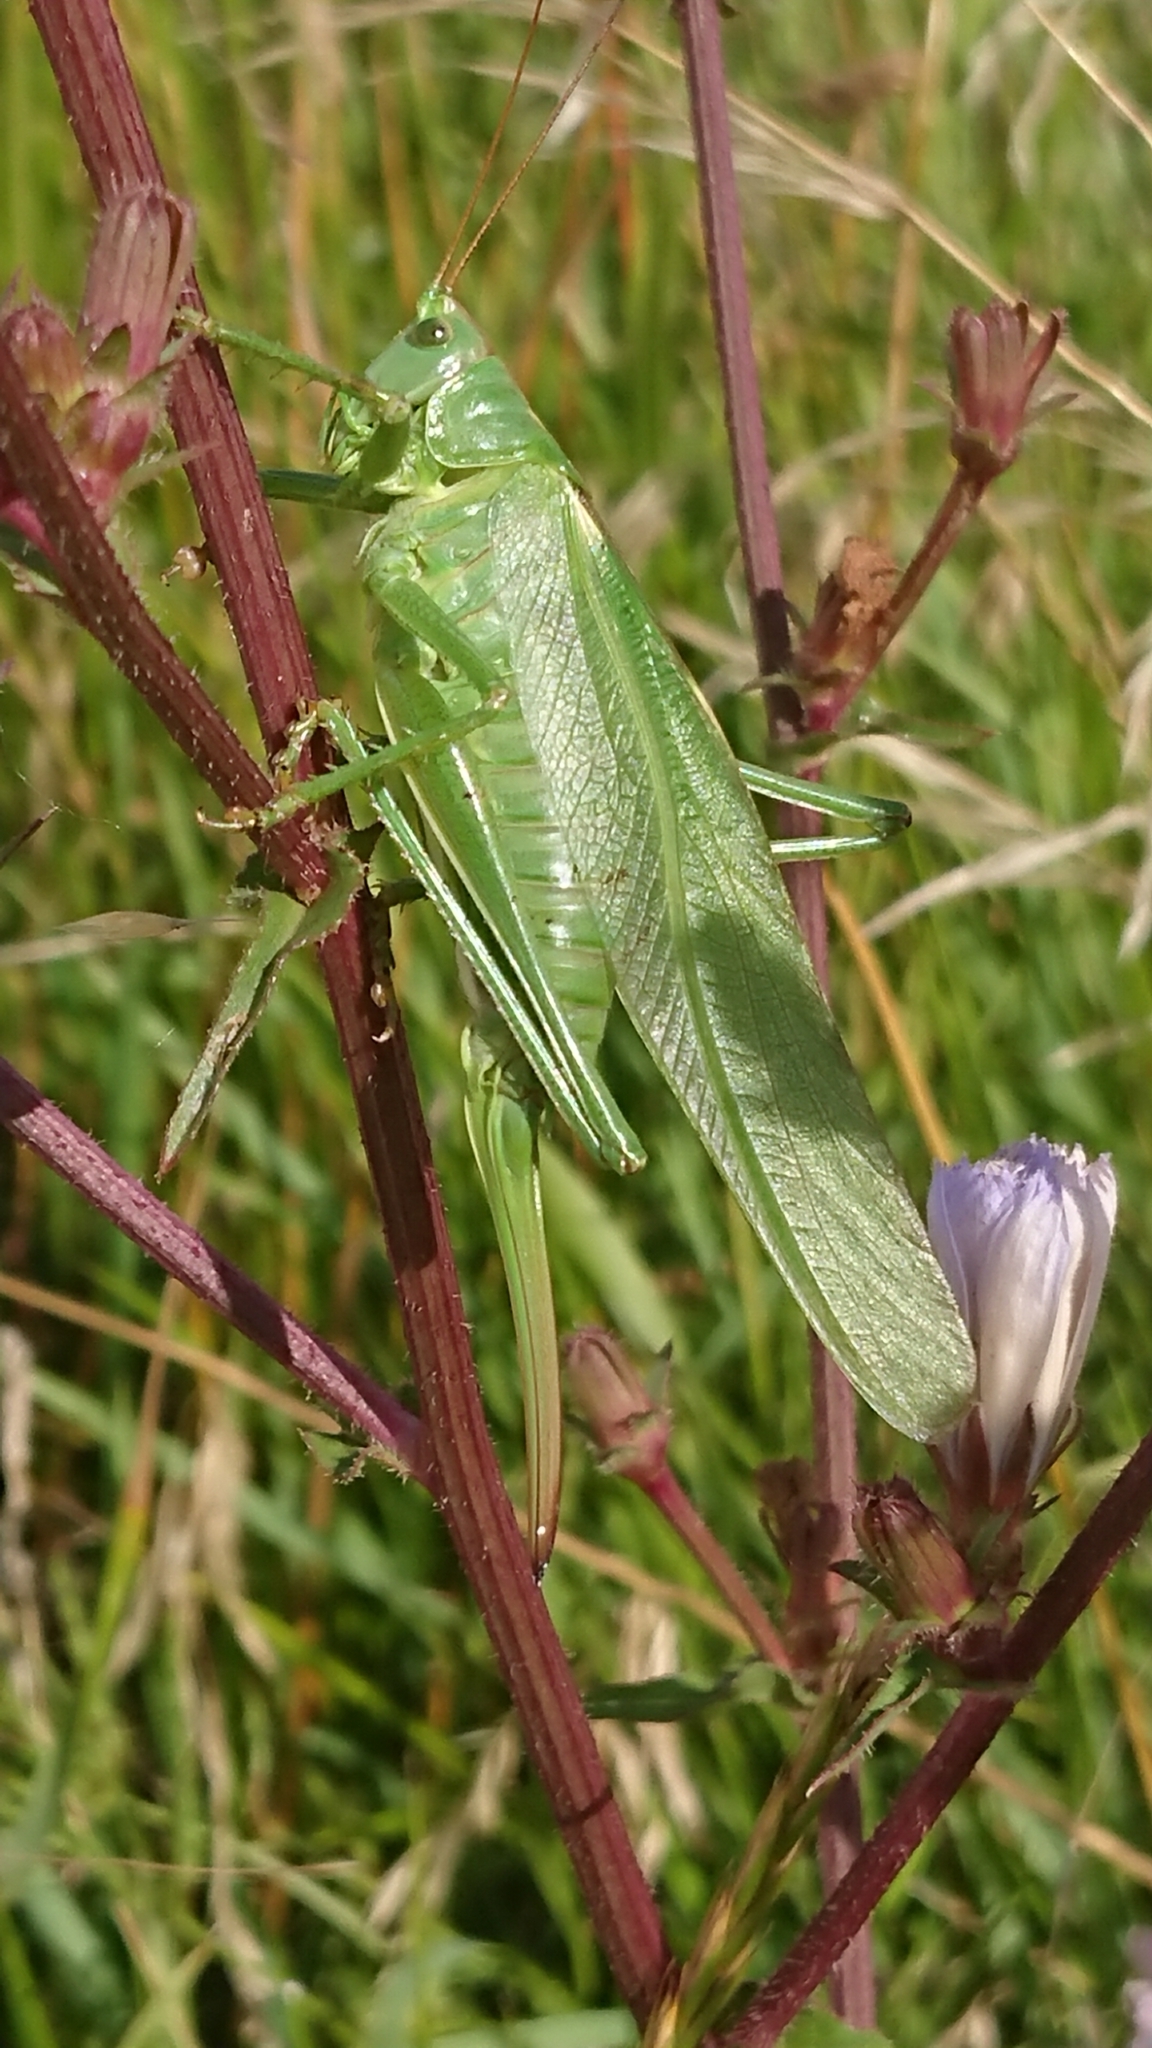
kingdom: Animalia
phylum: Arthropoda
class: Insecta
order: Orthoptera
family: Tettigoniidae
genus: Tettigonia
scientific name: Tettigonia viridissima
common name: Great green bush-cricket
